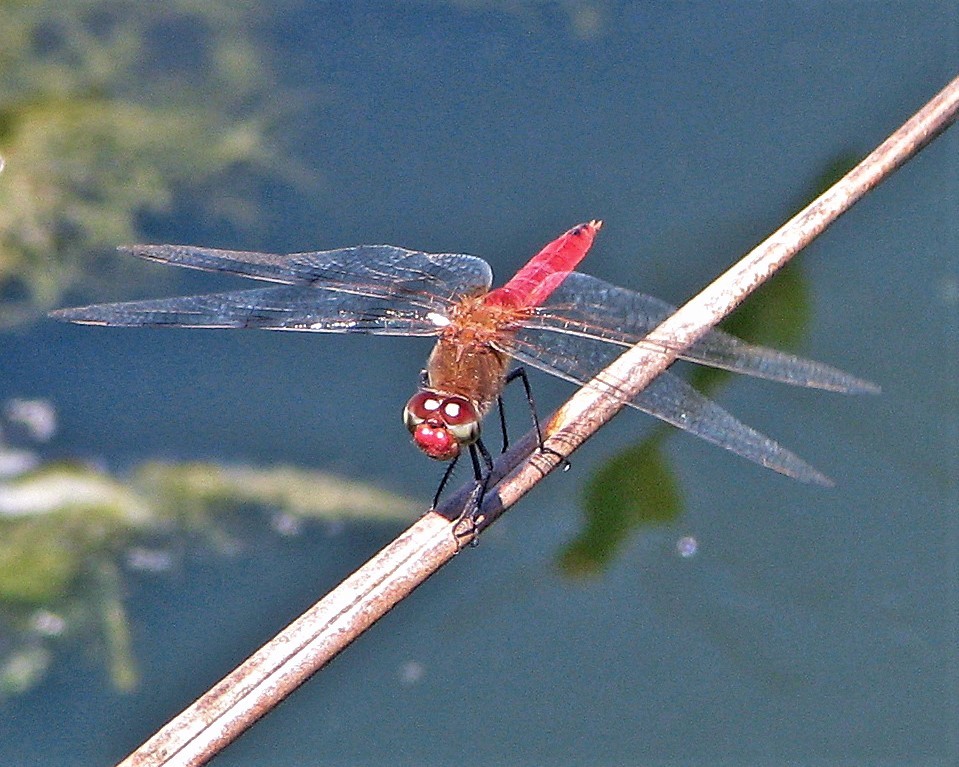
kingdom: Animalia
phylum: Arthropoda
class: Insecta
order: Odonata
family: Libellulidae
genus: Brachymesia
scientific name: Brachymesia furcata
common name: Red-taled pennant
